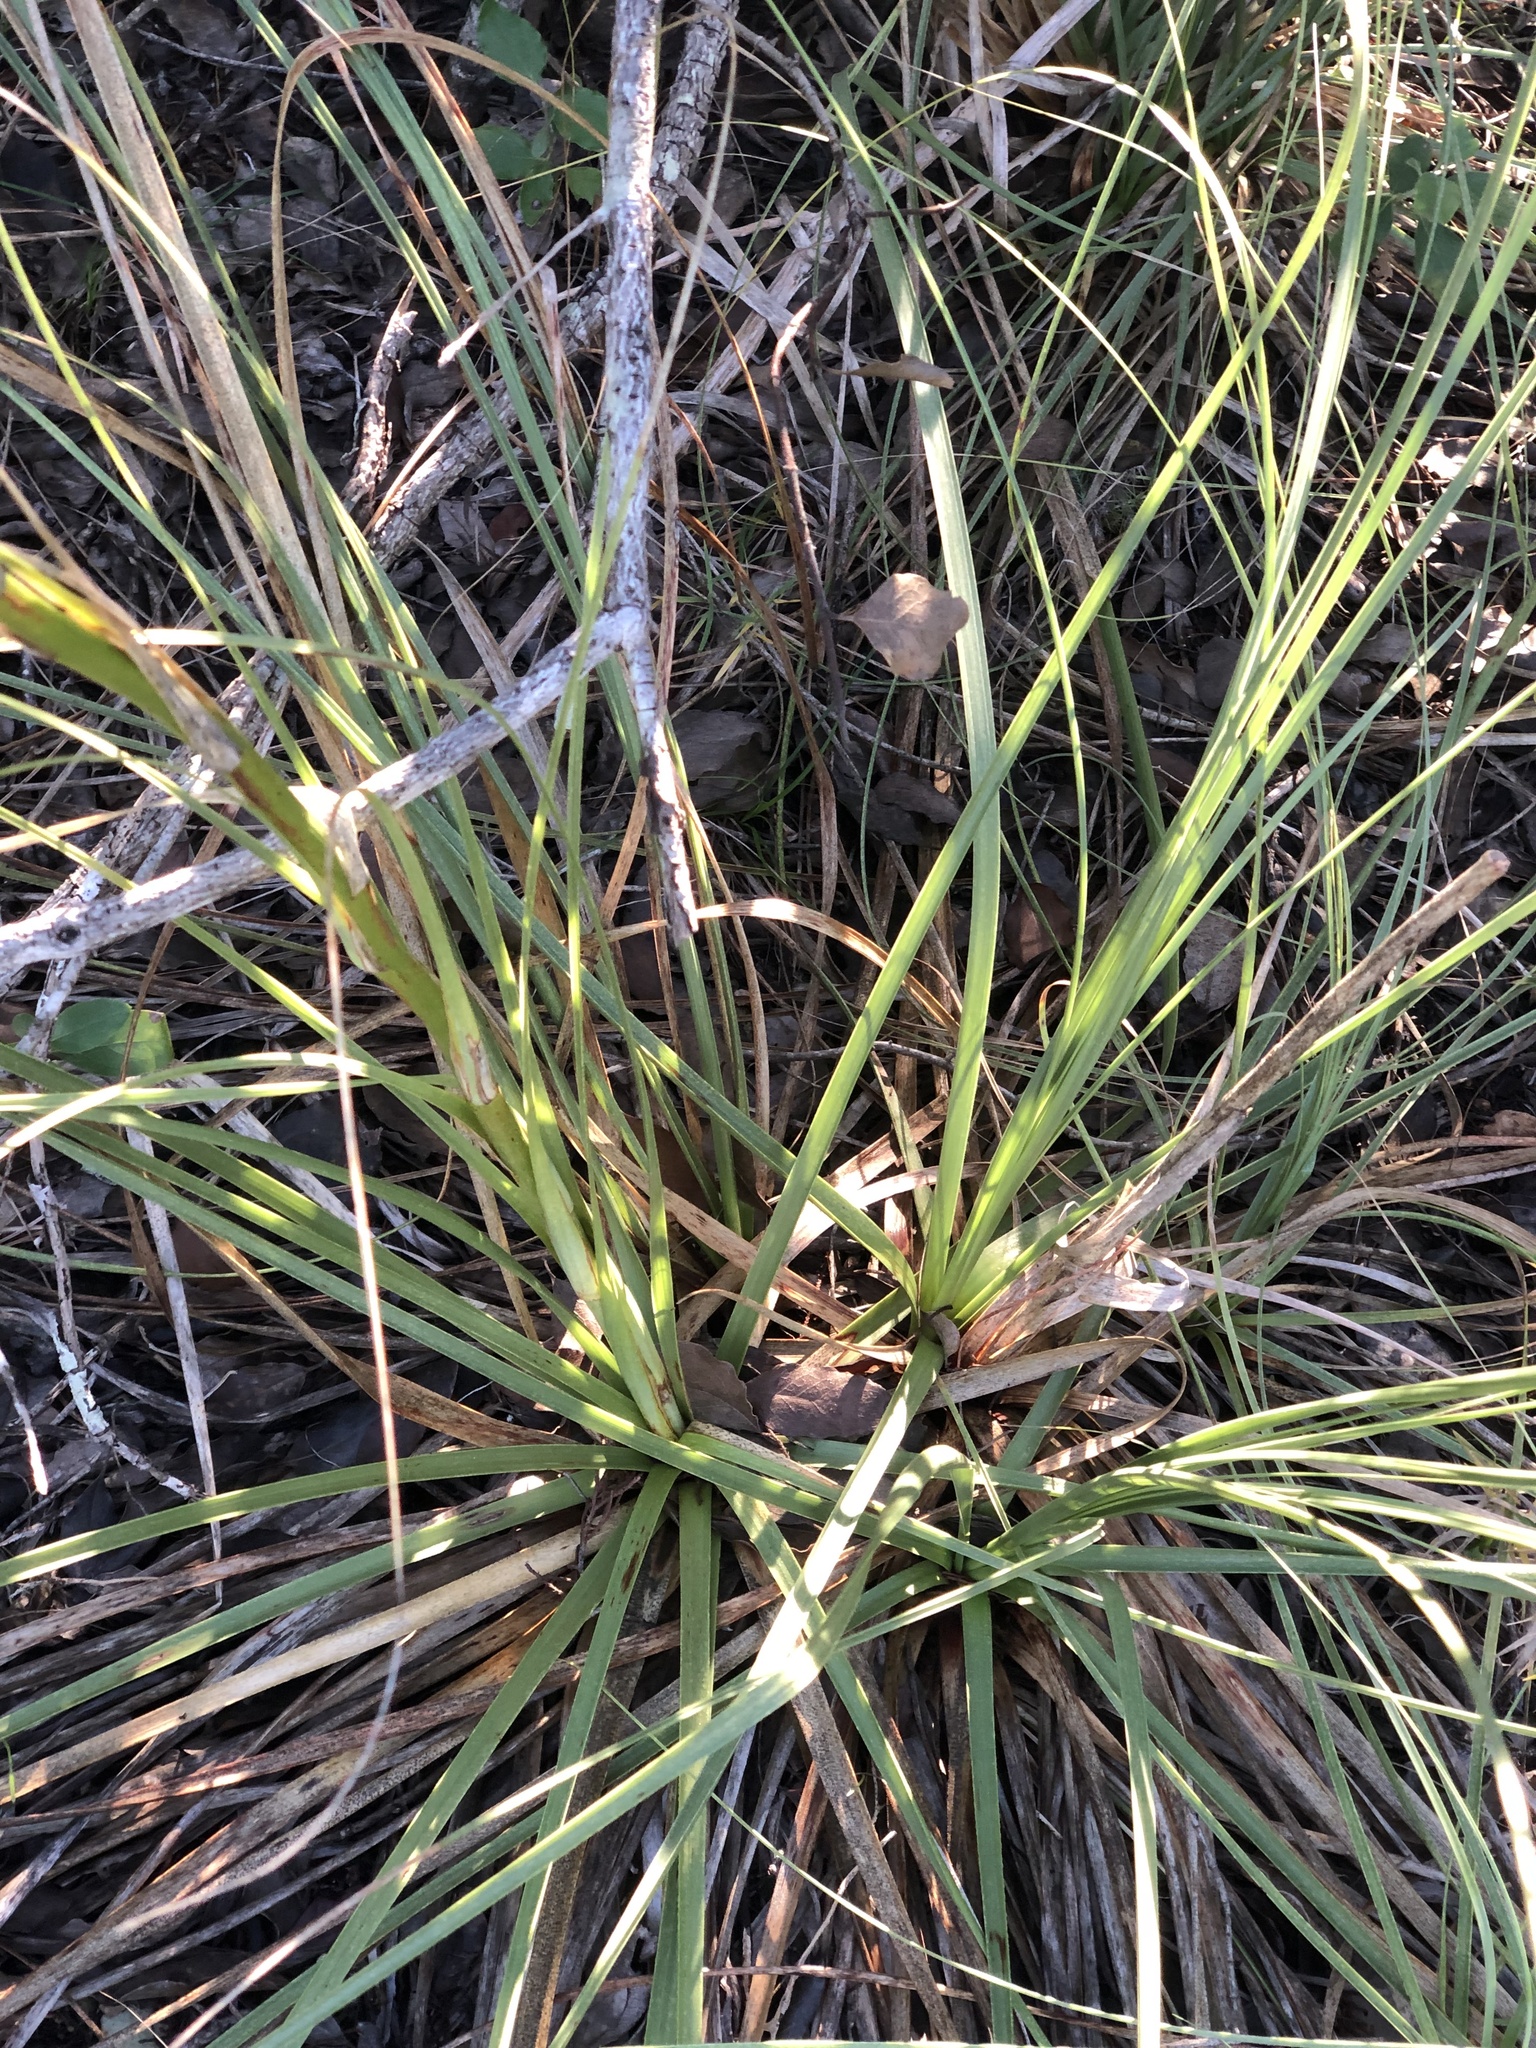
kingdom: Plantae
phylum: Tracheophyta
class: Liliopsida
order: Asparagales
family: Asparagaceae
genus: Nolina
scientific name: Nolina lindheimeriana
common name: Lindheimer's bear-grass
